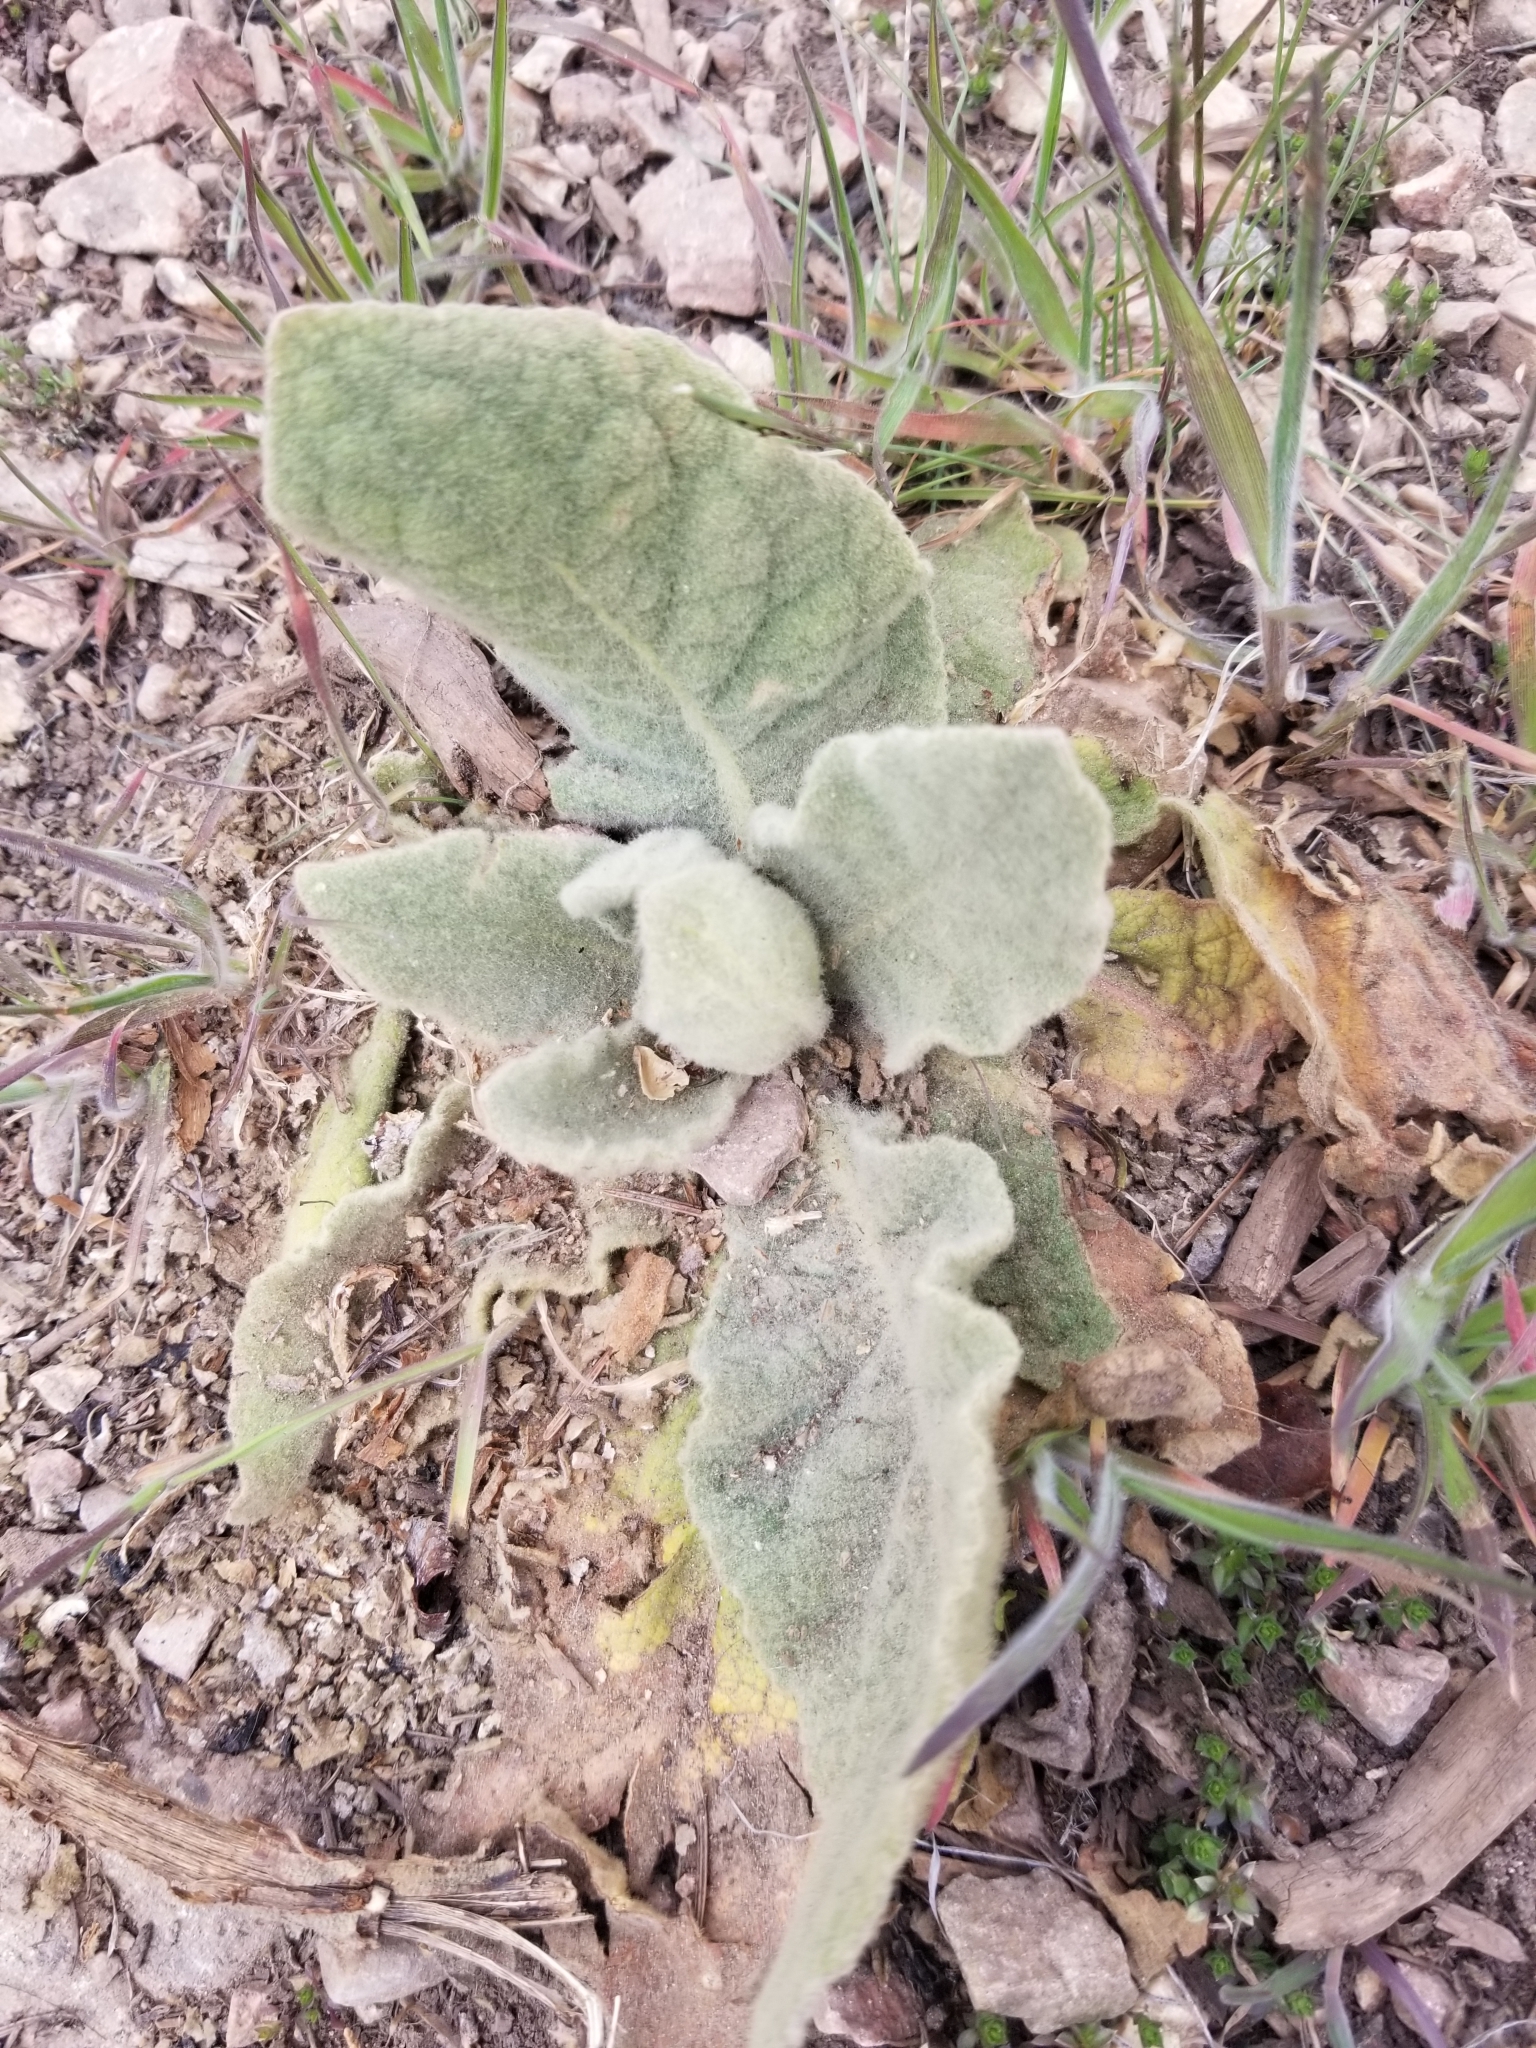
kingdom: Plantae
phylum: Tracheophyta
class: Magnoliopsida
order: Lamiales
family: Scrophulariaceae
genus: Verbascum
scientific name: Verbascum thapsus
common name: Common mullein
